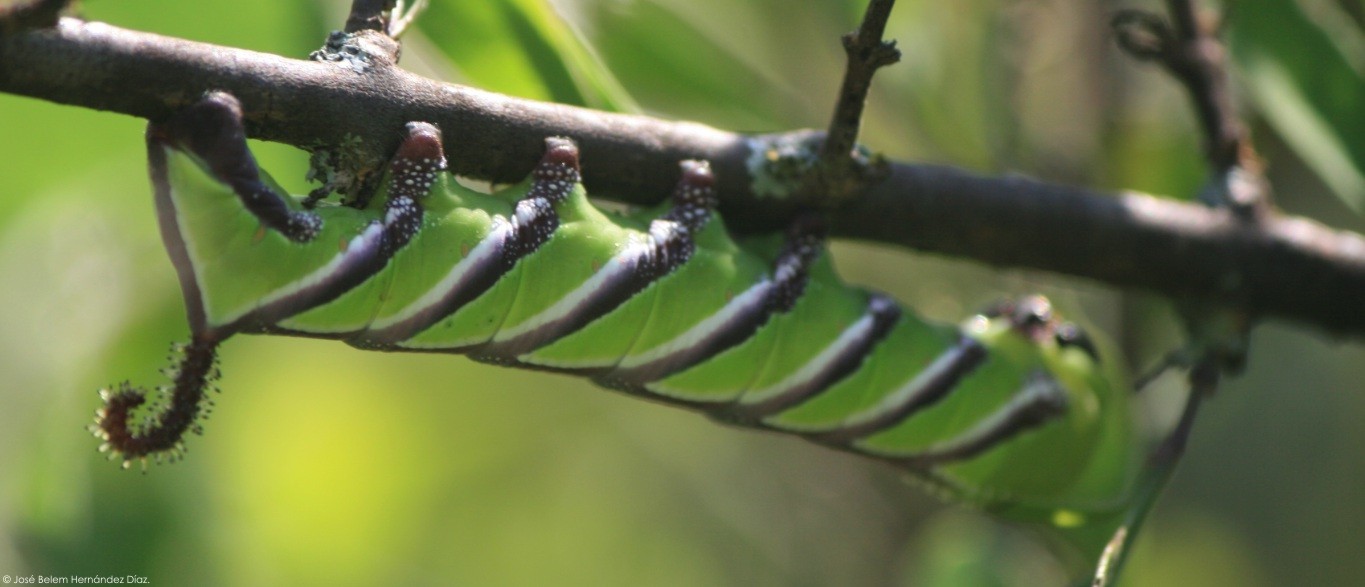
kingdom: Animalia
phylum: Arthropoda
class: Insecta
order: Lepidoptera
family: Sphingidae
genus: Sphinx
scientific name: Sphinx leucophaeata
